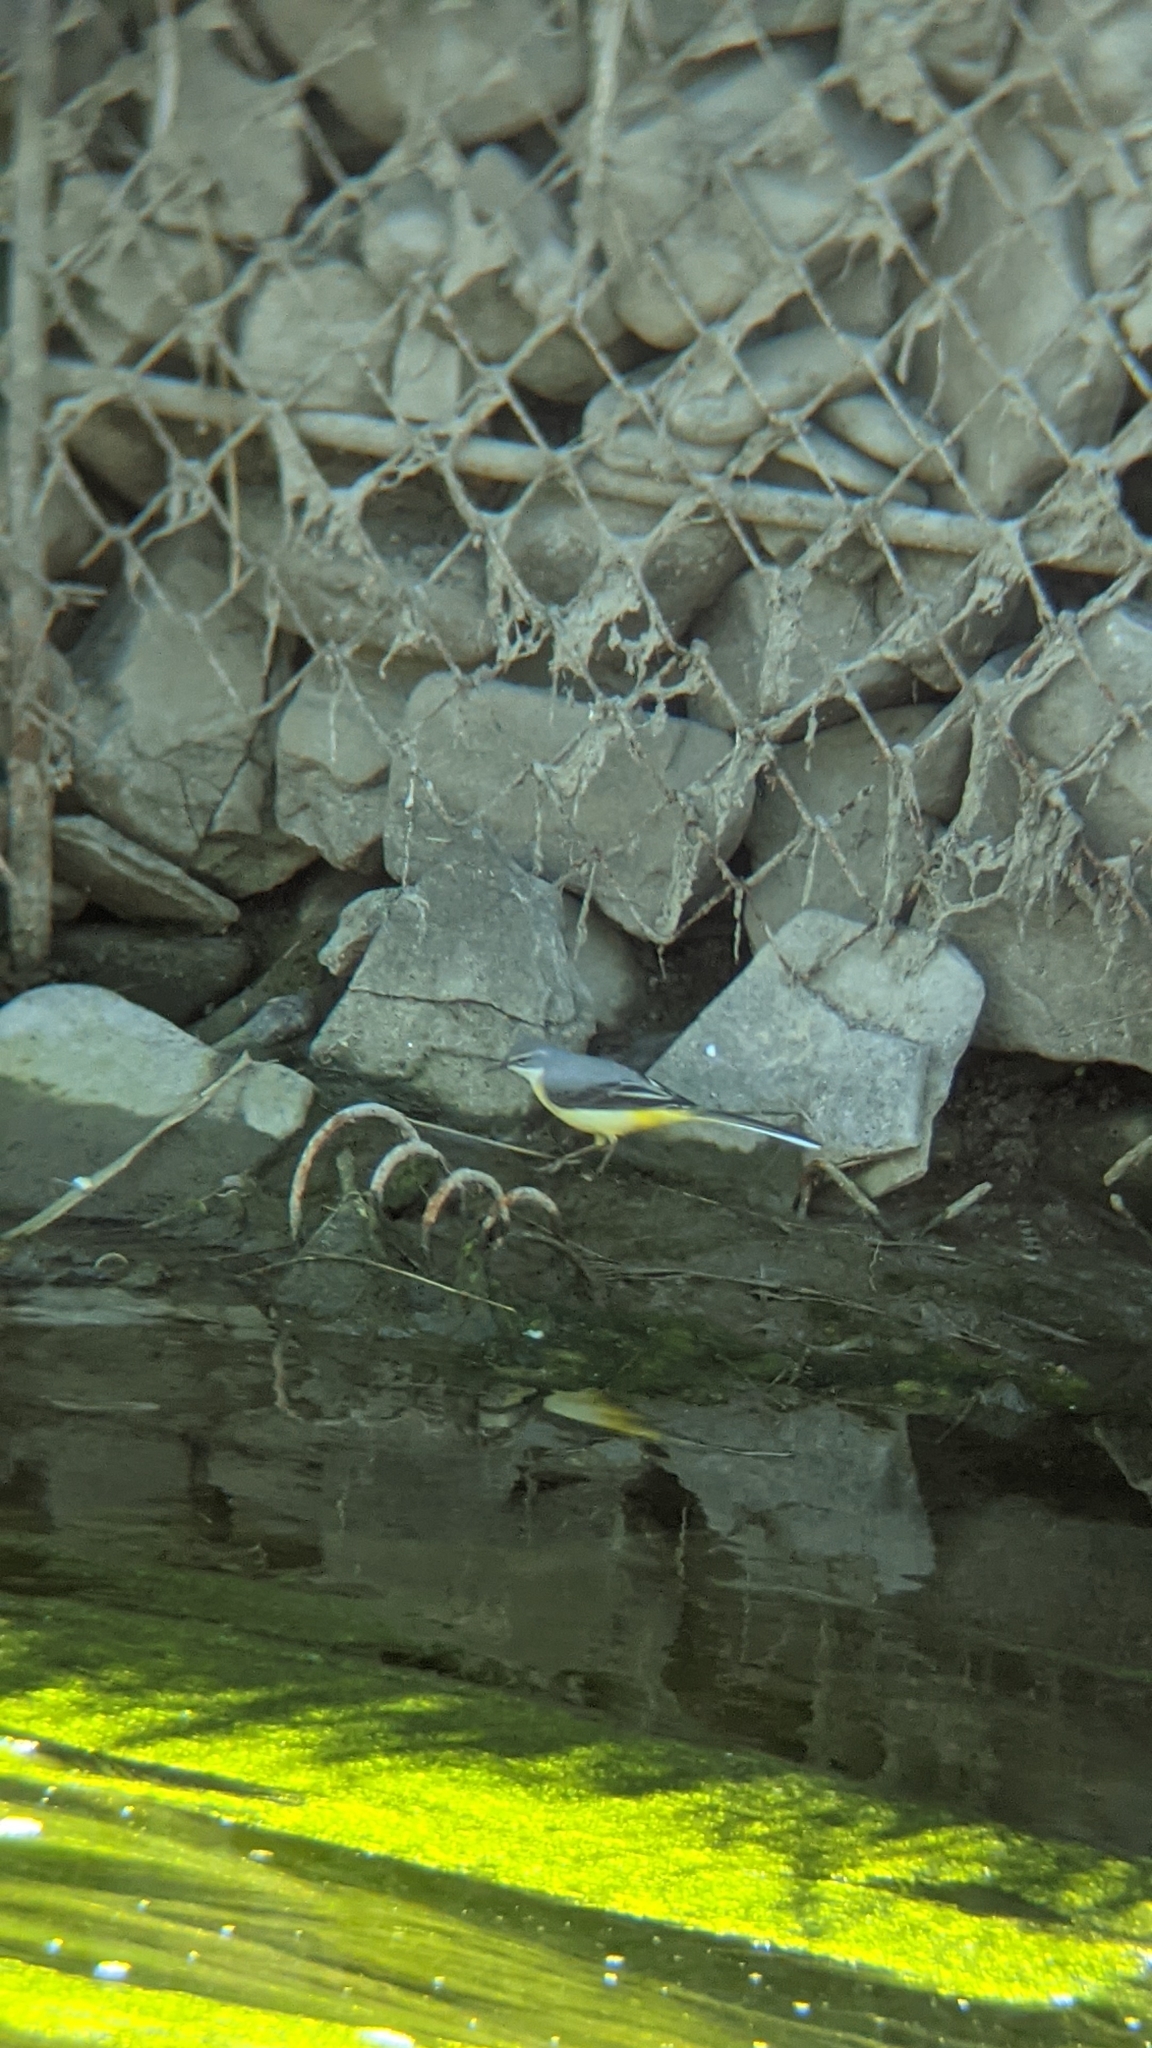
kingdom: Animalia
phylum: Chordata
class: Aves
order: Passeriformes
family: Motacillidae
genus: Motacilla
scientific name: Motacilla cinerea
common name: Grey wagtail
